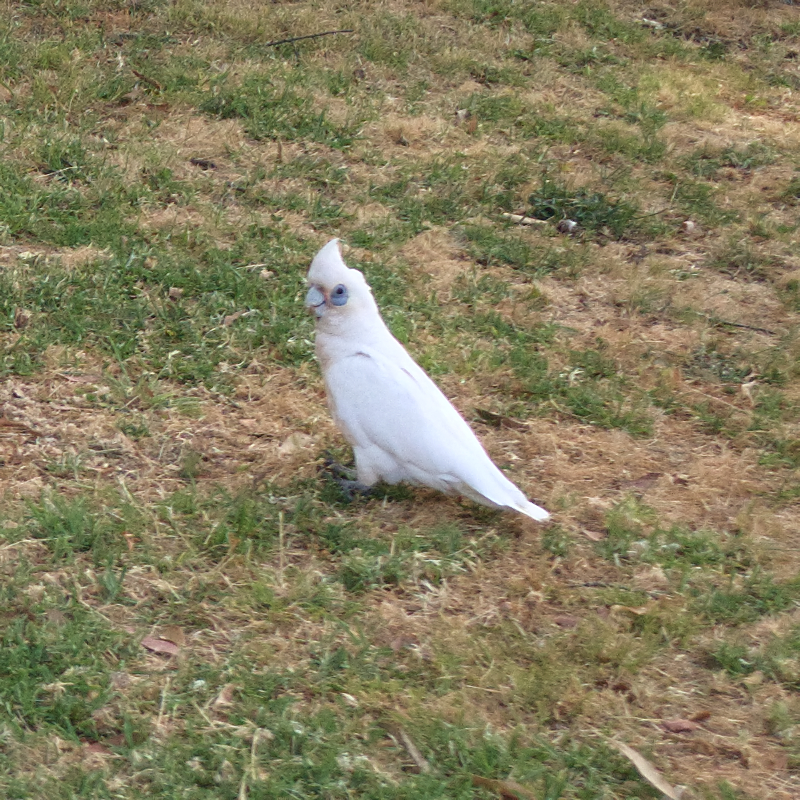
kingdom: Animalia
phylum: Chordata
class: Aves
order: Psittaciformes
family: Psittacidae
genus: Cacatua
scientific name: Cacatua sanguinea
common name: Little corella
